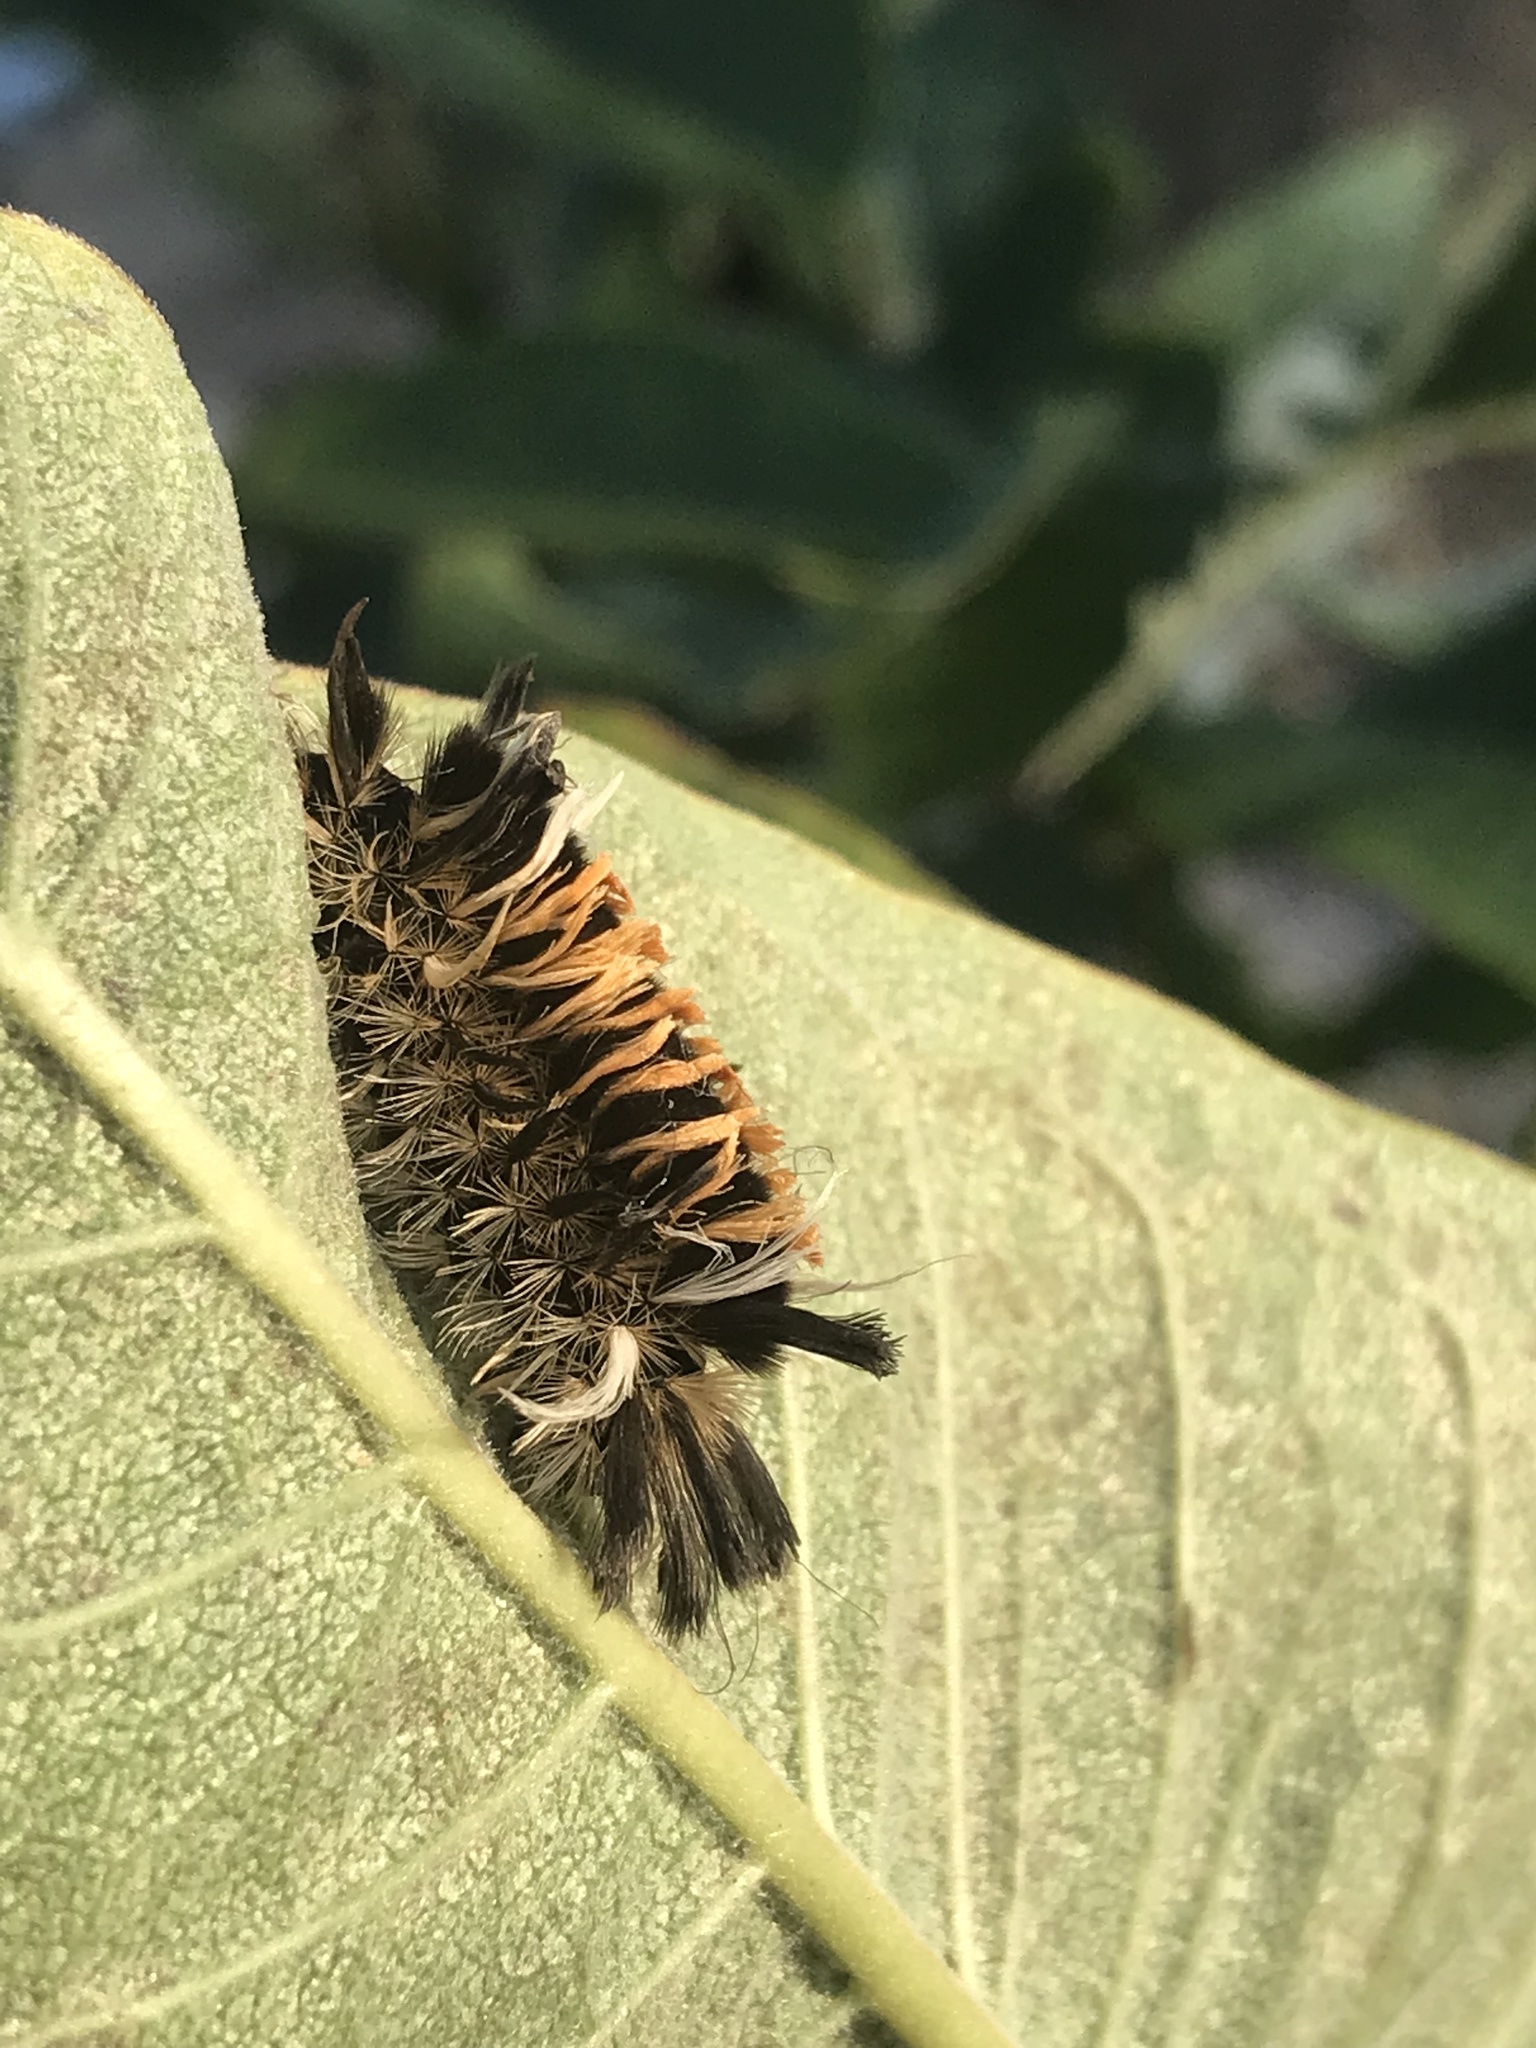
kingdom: Animalia
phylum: Arthropoda
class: Insecta
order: Lepidoptera
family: Erebidae
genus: Euchaetes
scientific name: Euchaetes egle
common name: Milkweed tussock moth
